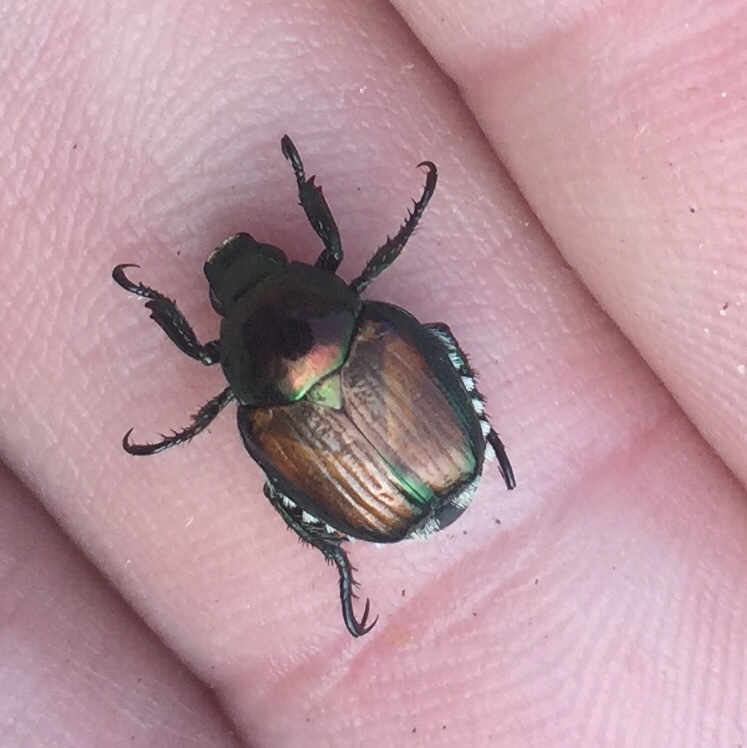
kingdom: Animalia
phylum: Arthropoda
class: Insecta
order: Coleoptera
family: Scarabaeidae
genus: Popillia
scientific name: Popillia japonica
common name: Japanese beetle
